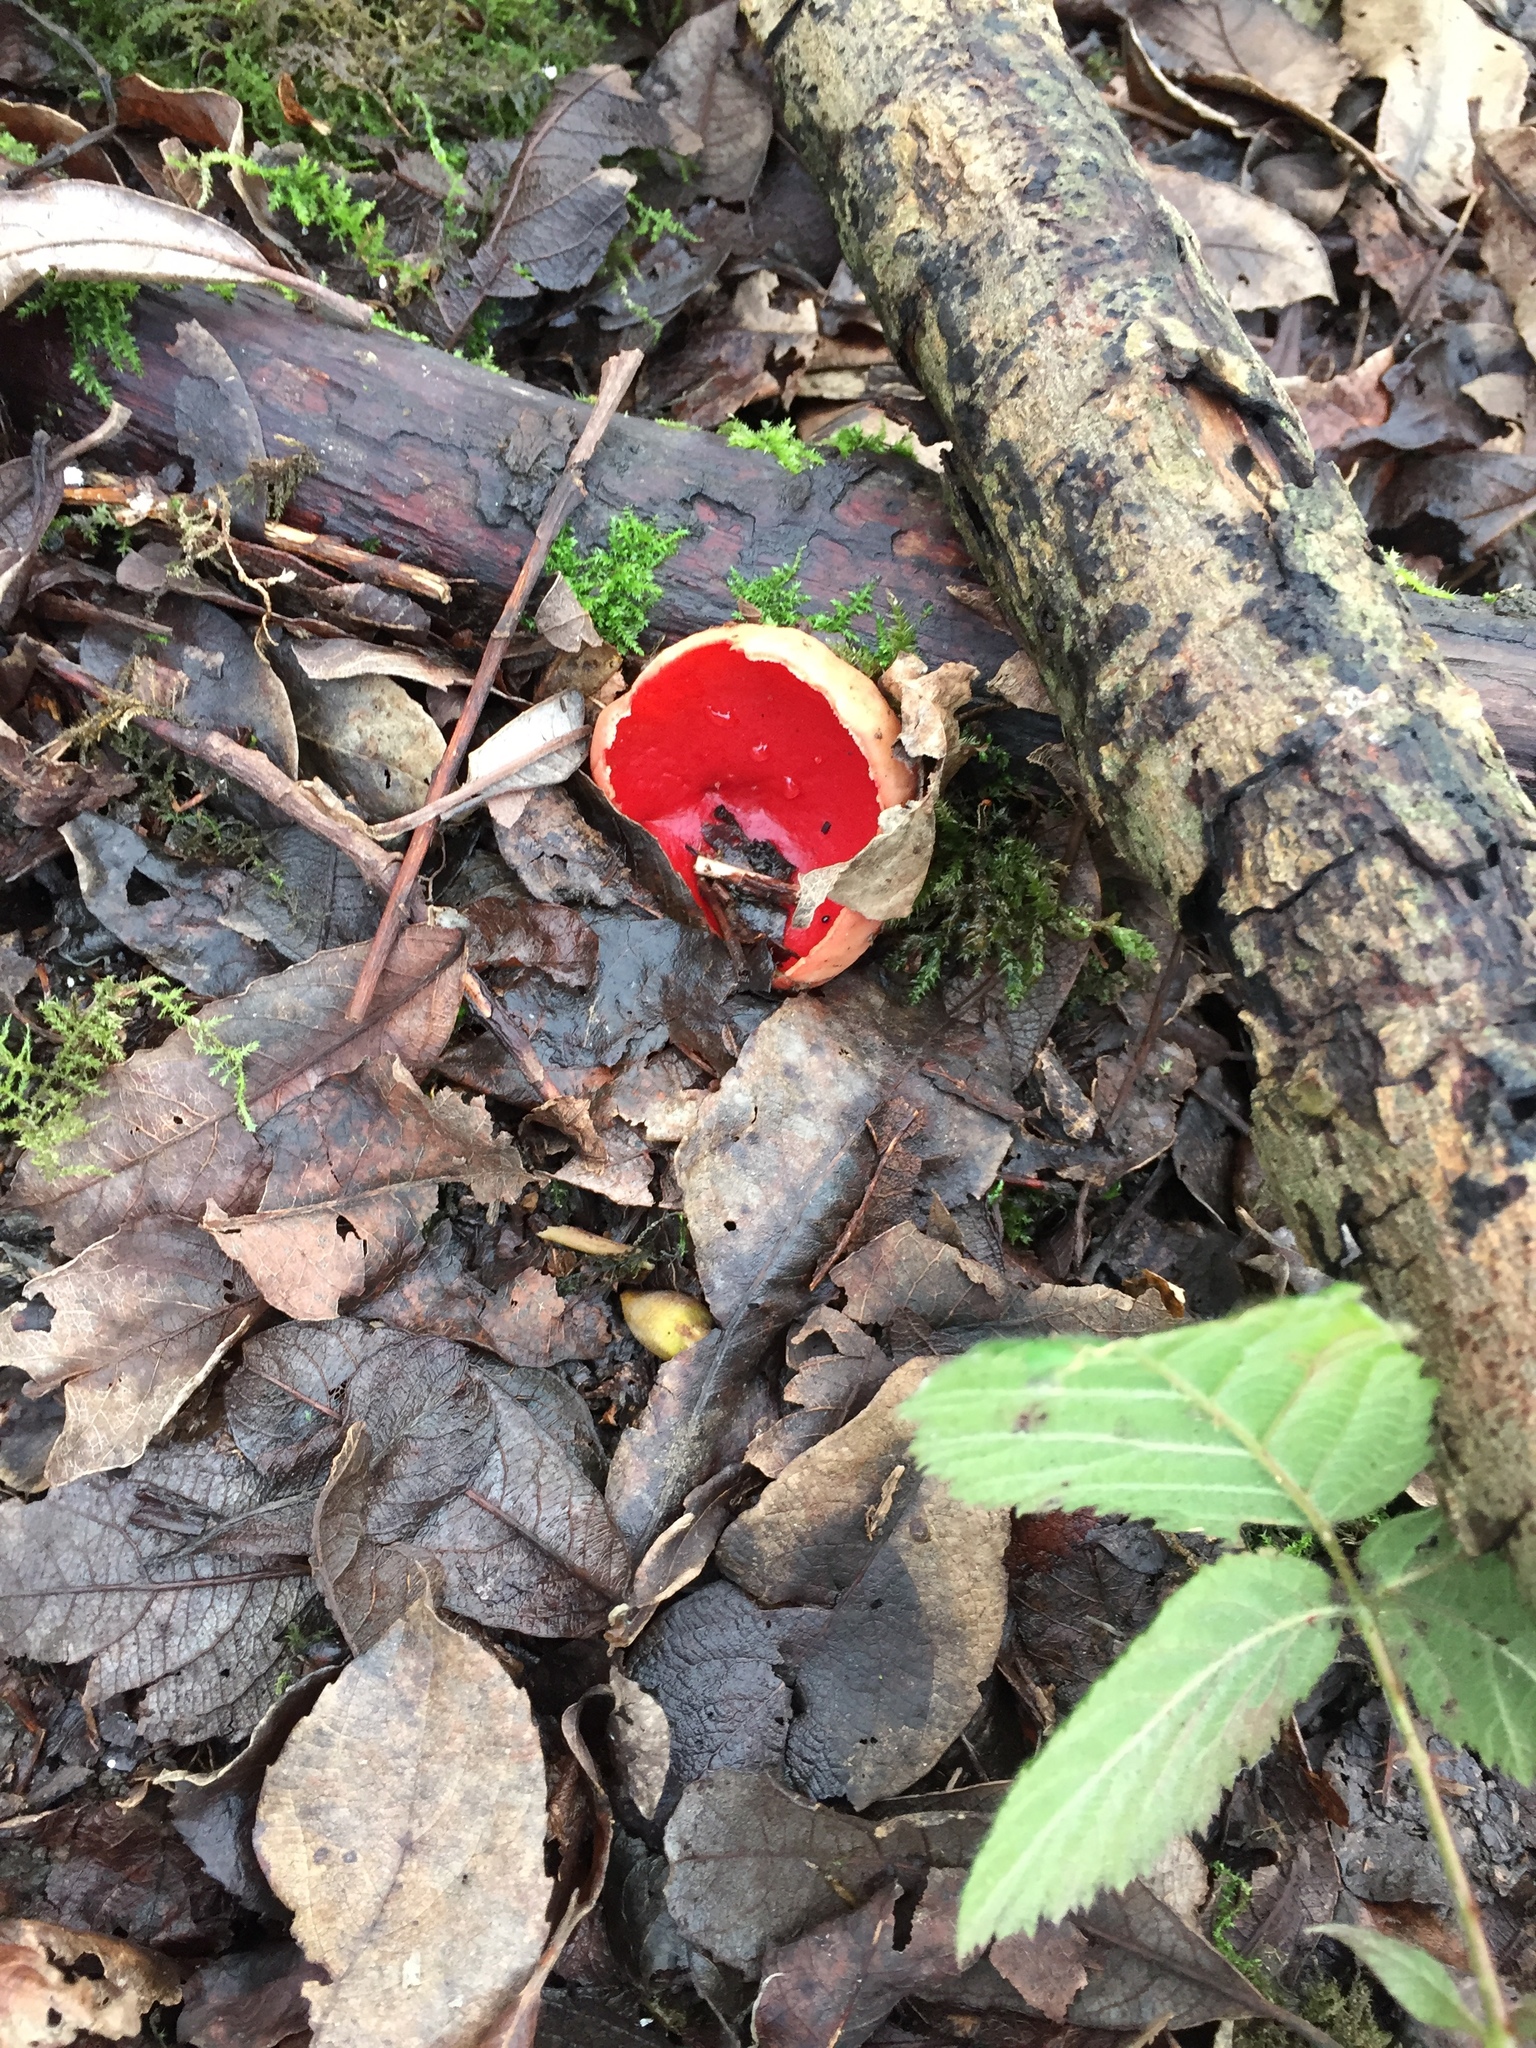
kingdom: Fungi
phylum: Ascomycota
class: Pezizomycetes
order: Pezizales
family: Sarcoscyphaceae
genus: Sarcoscypha
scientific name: Sarcoscypha
